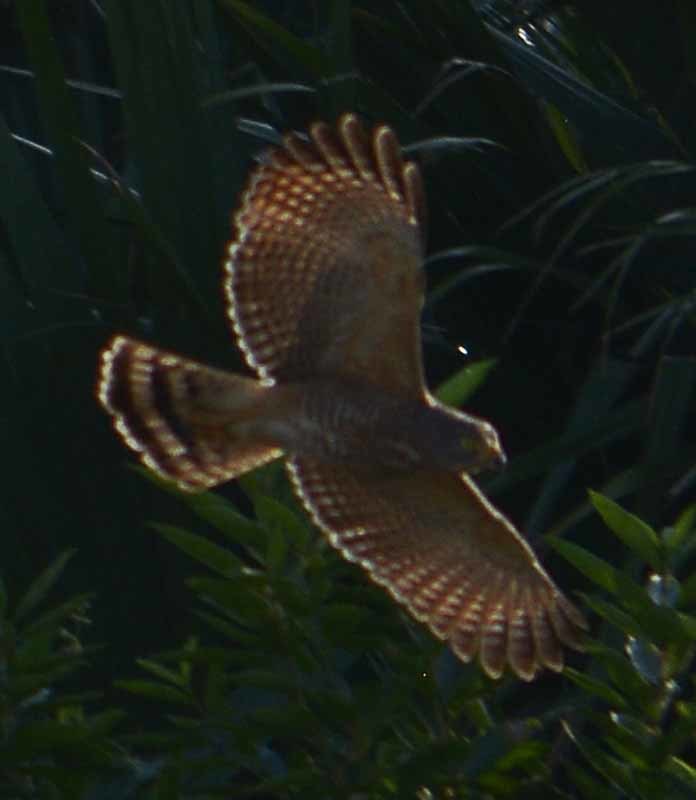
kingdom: Animalia
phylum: Chordata
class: Aves
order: Accipitriformes
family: Accipitridae
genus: Rupornis
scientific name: Rupornis magnirostris
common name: Roadside hawk
